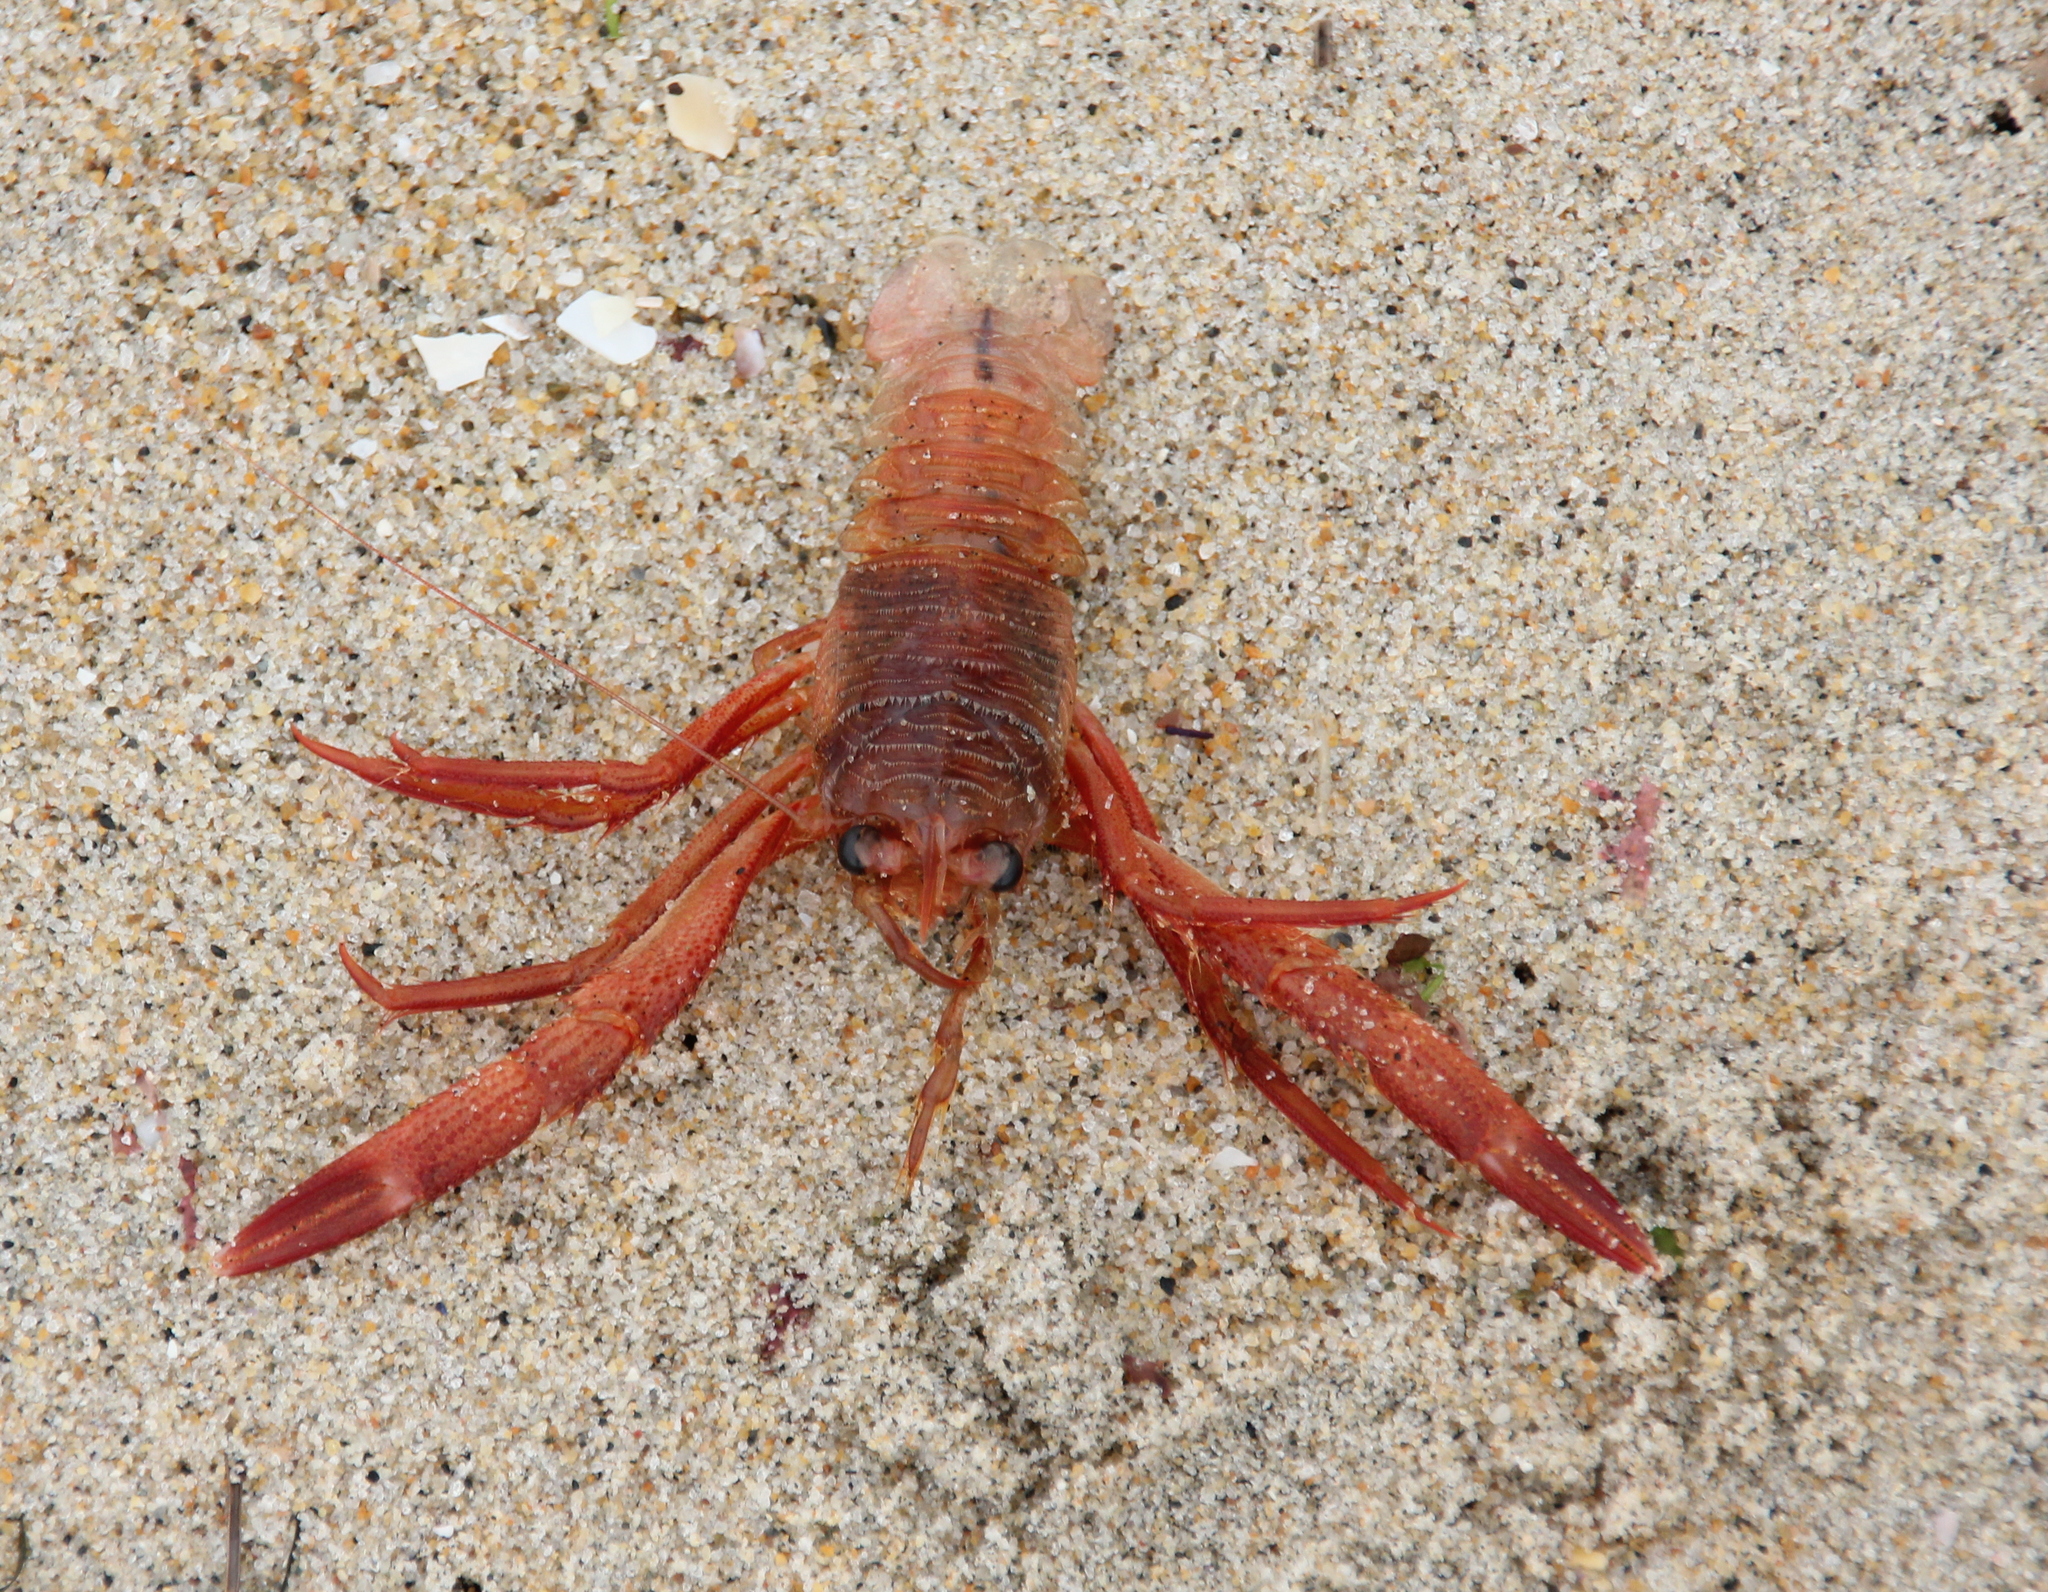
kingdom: Animalia
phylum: Arthropoda
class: Malacostraca
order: Decapoda
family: Munididae
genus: Grimothea
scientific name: Grimothea planipes
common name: Pelagic red crab
